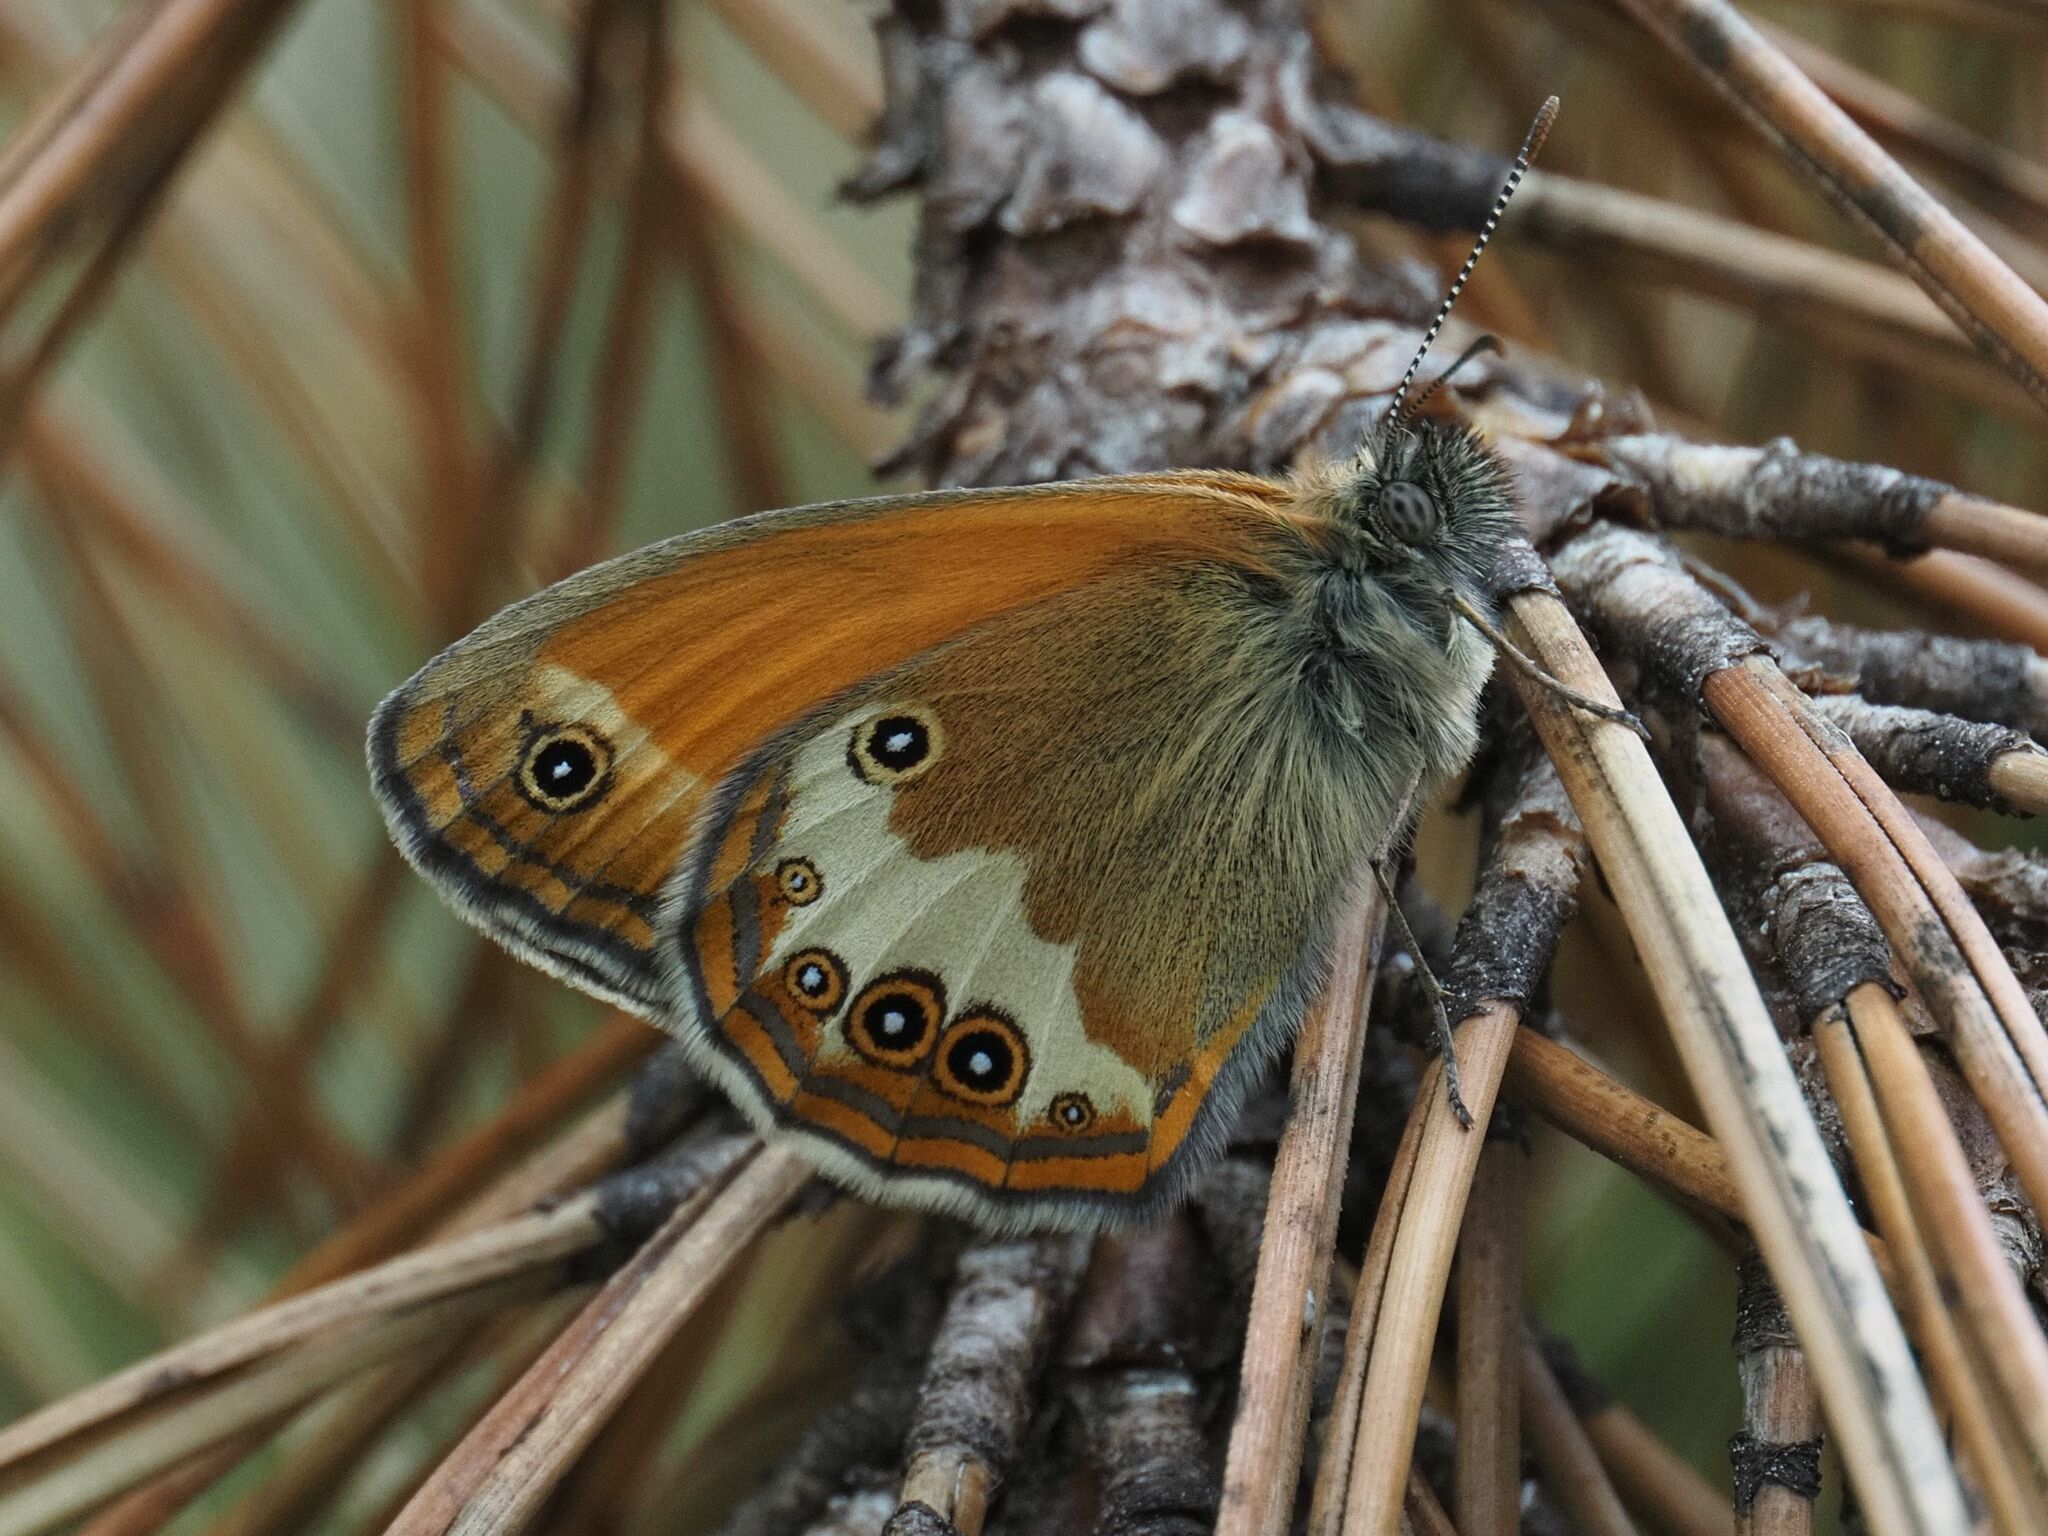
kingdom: Animalia
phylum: Arthropoda
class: Insecta
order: Lepidoptera
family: Nymphalidae
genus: Coenonympha
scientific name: Coenonympha arcania
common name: Pearly heath
